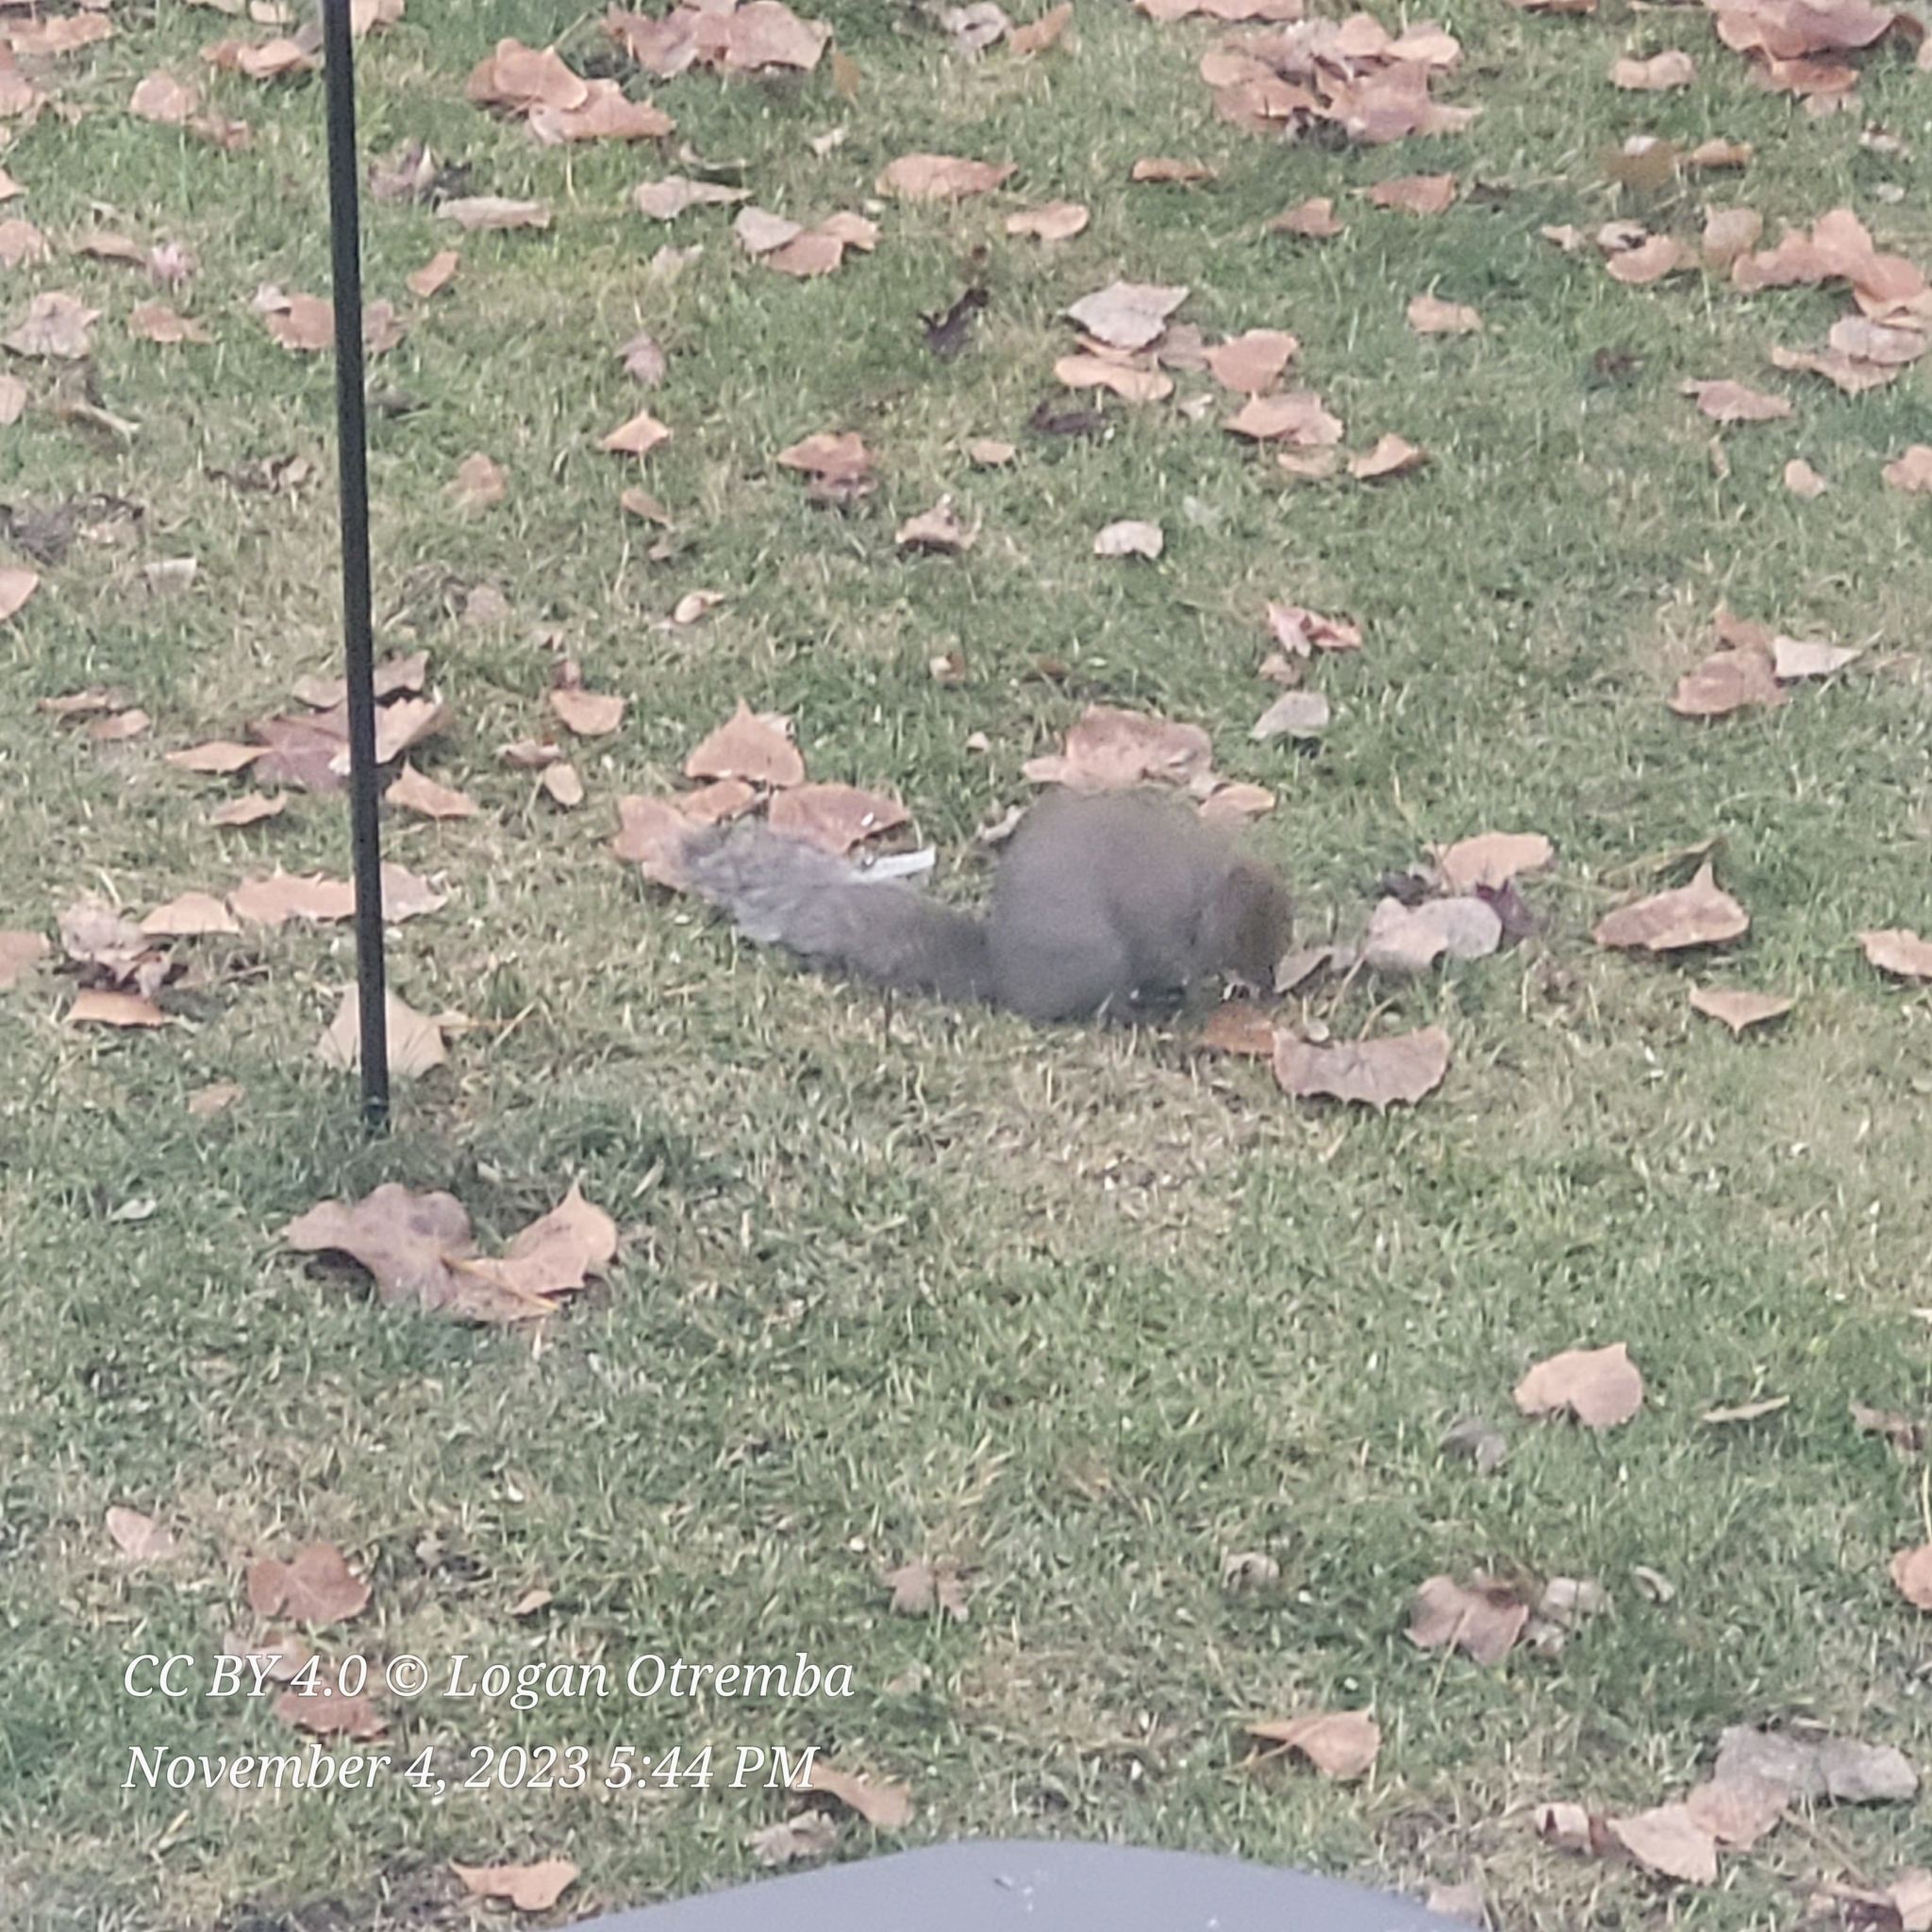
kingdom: Animalia
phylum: Chordata
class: Mammalia
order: Rodentia
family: Sciuridae
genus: Sciurus
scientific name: Sciurus carolinensis
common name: Eastern gray squirrel
